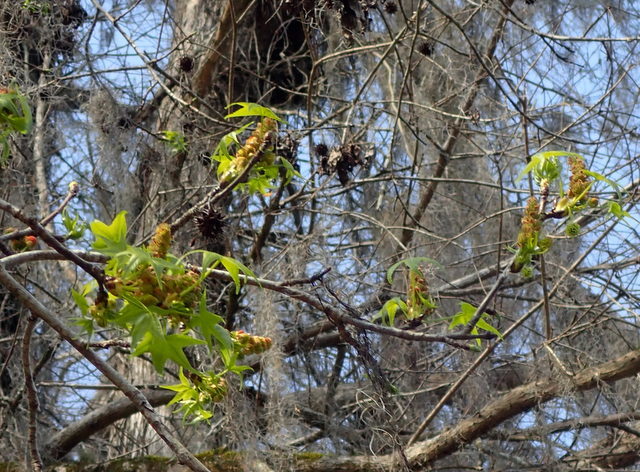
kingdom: Plantae
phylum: Tracheophyta
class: Magnoliopsida
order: Saxifragales
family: Altingiaceae
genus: Liquidambar
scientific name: Liquidambar styraciflua
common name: Sweet gum
